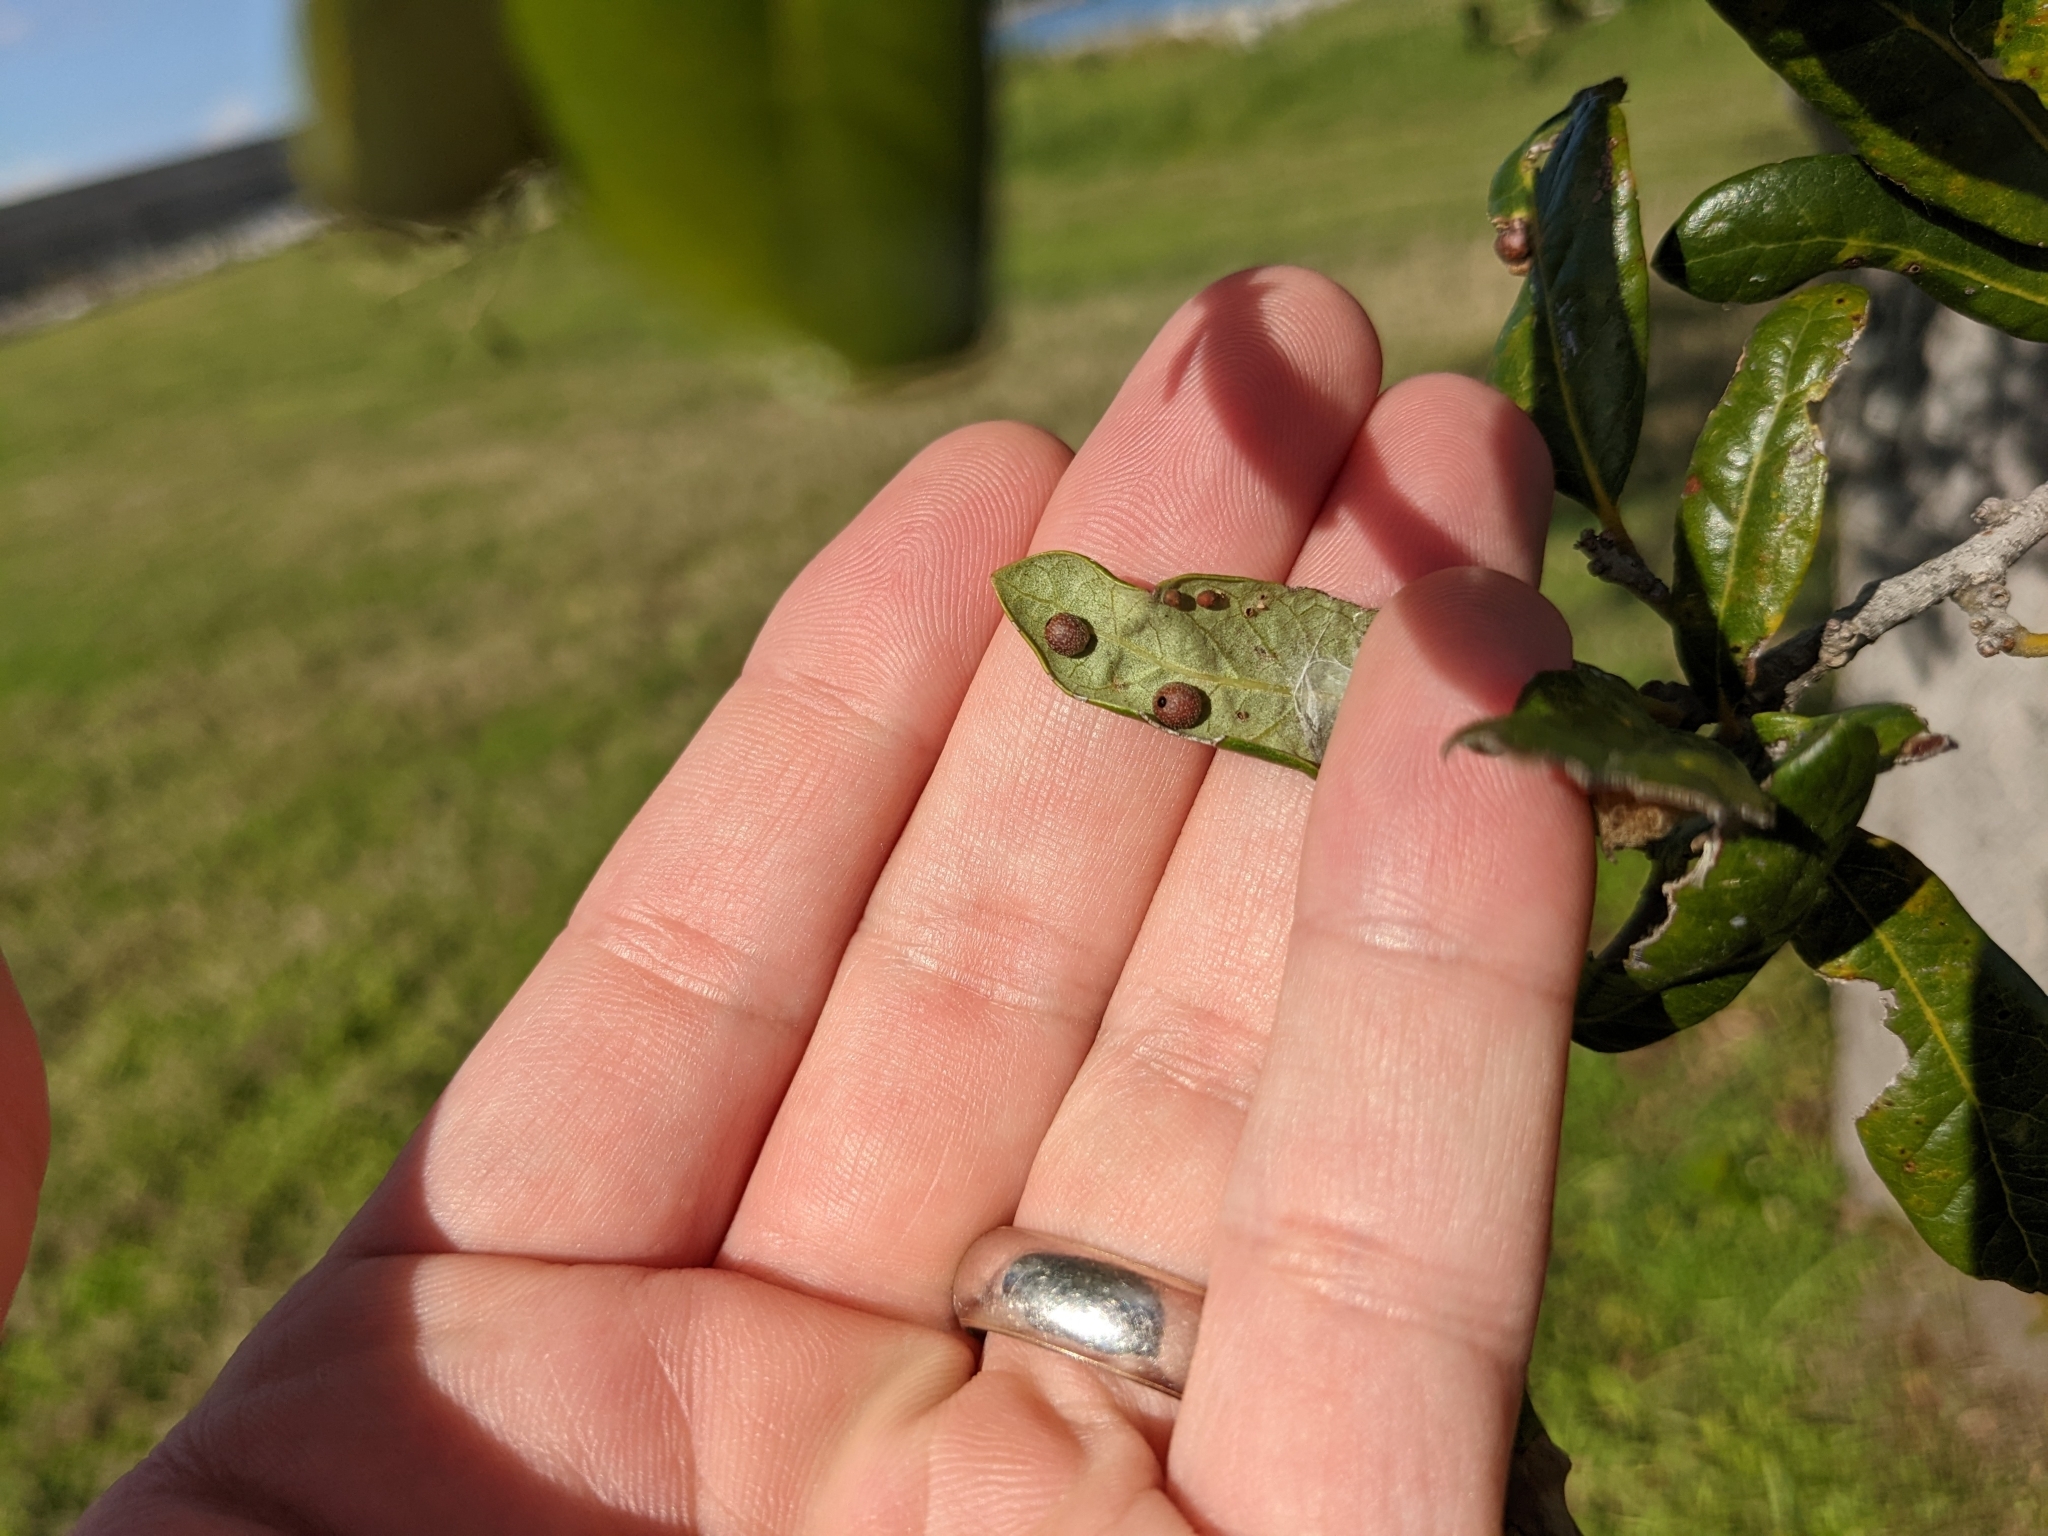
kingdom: Animalia
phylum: Arthropoda
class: Insecta
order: Hymenoptera
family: Cynipidae
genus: Belonocnema
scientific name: Belonocnema kinseyi
